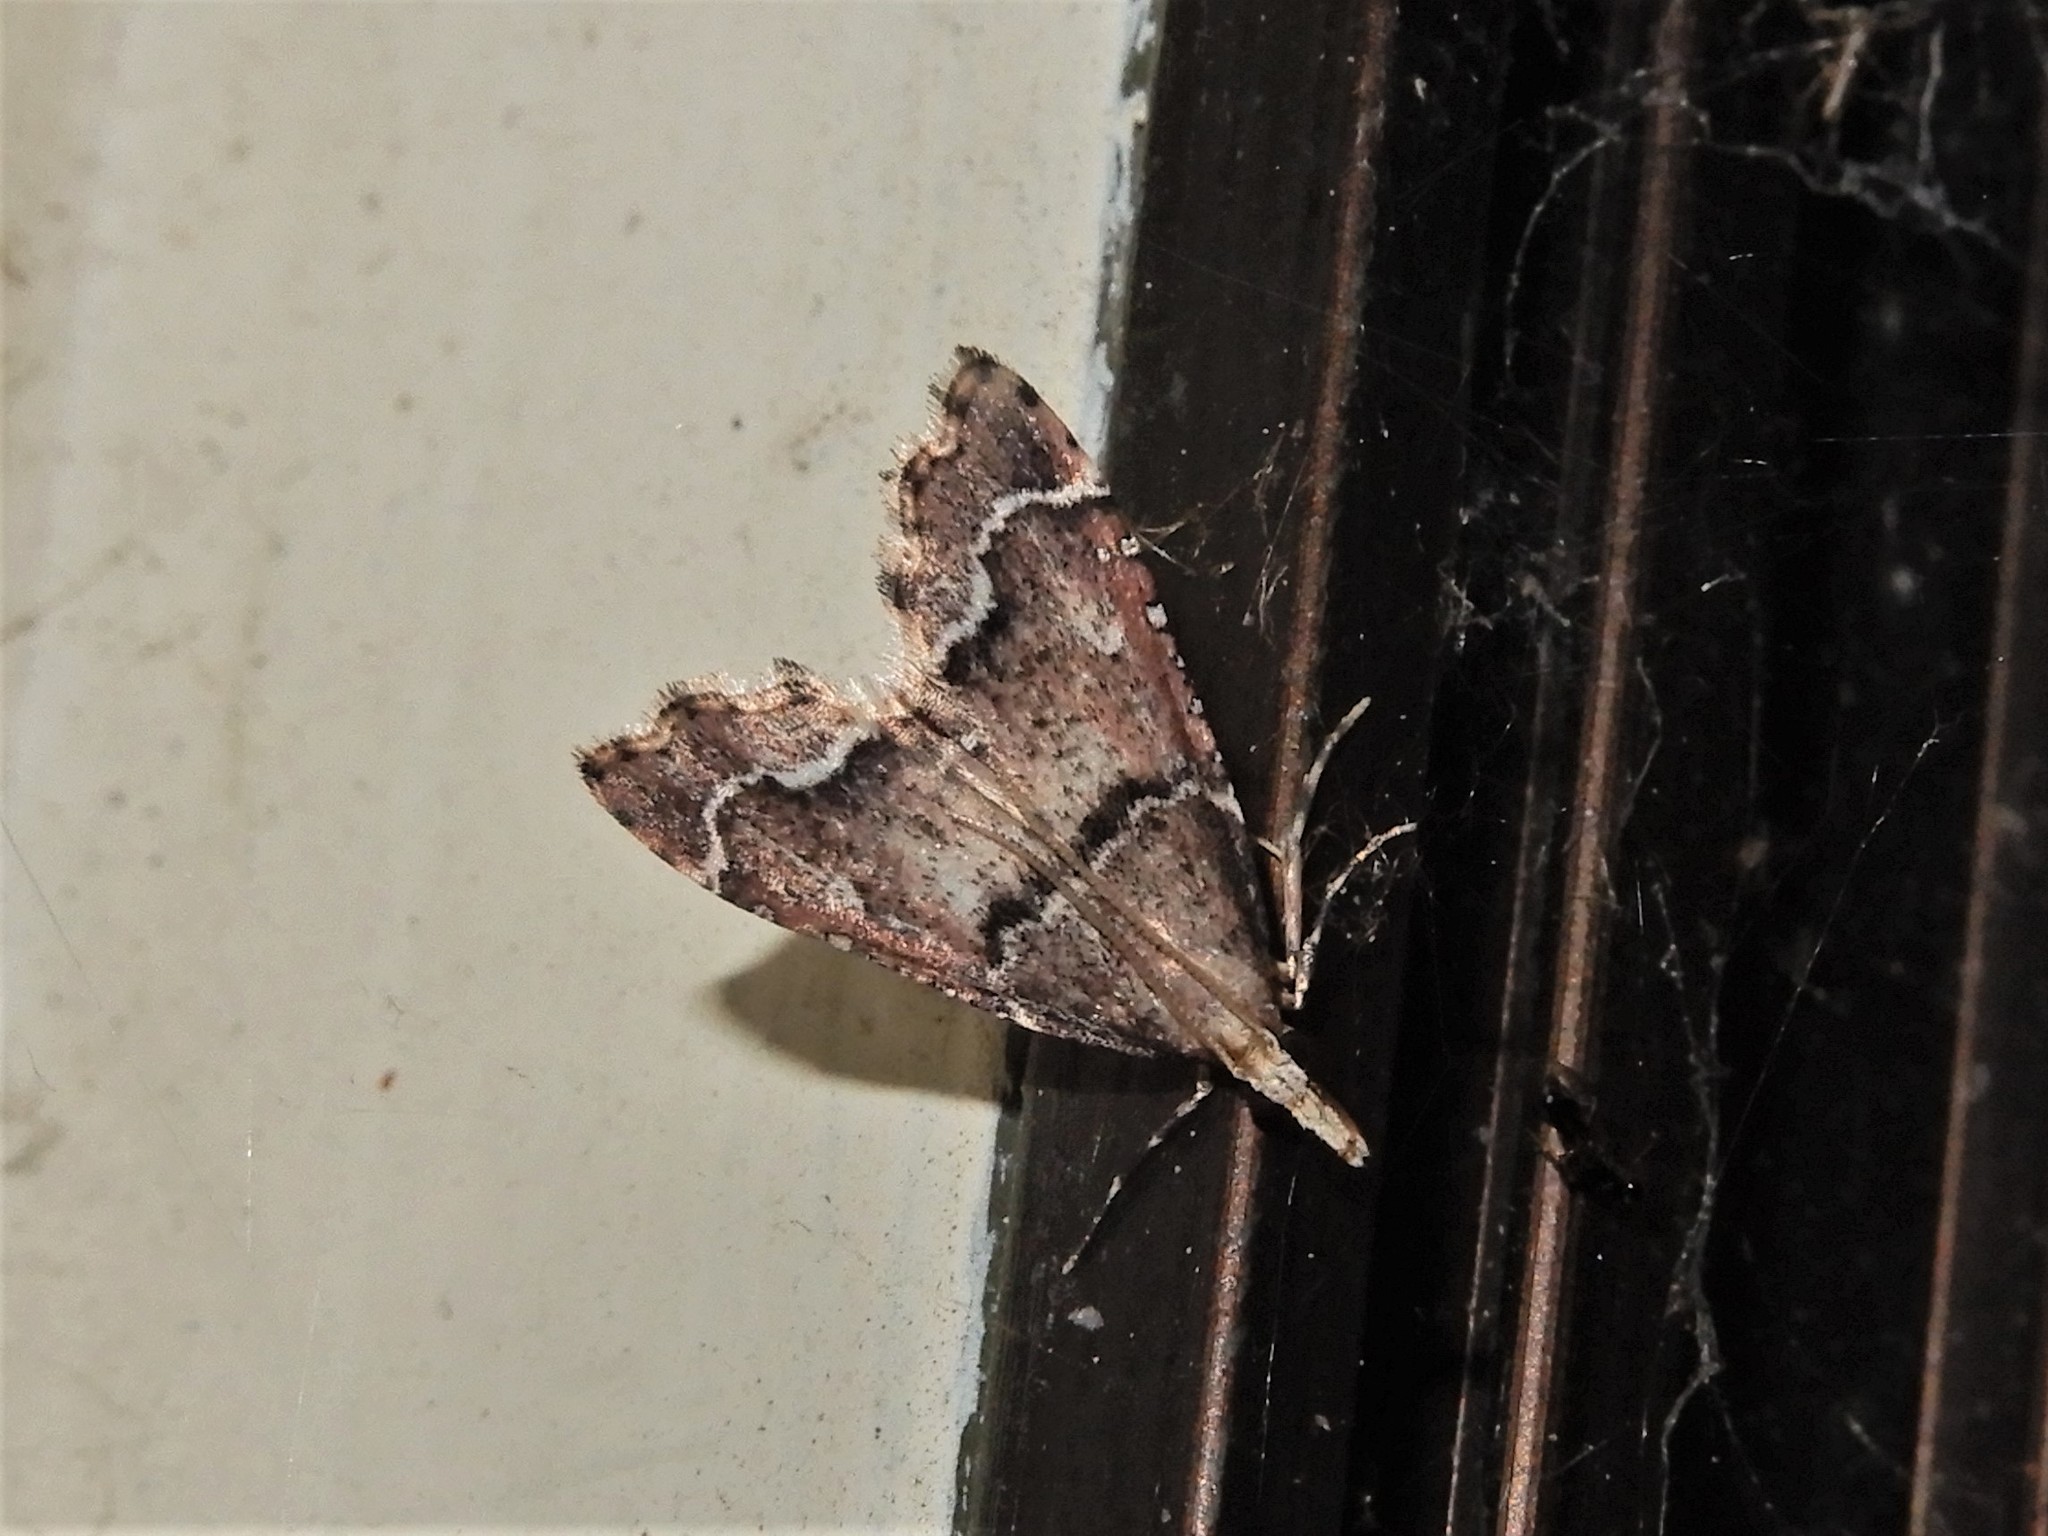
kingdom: Animalia
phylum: Arthropoda
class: Insecta
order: Lepidoptera
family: Crambidae
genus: Diplopseustis
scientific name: Diplopseustis perieresalis
